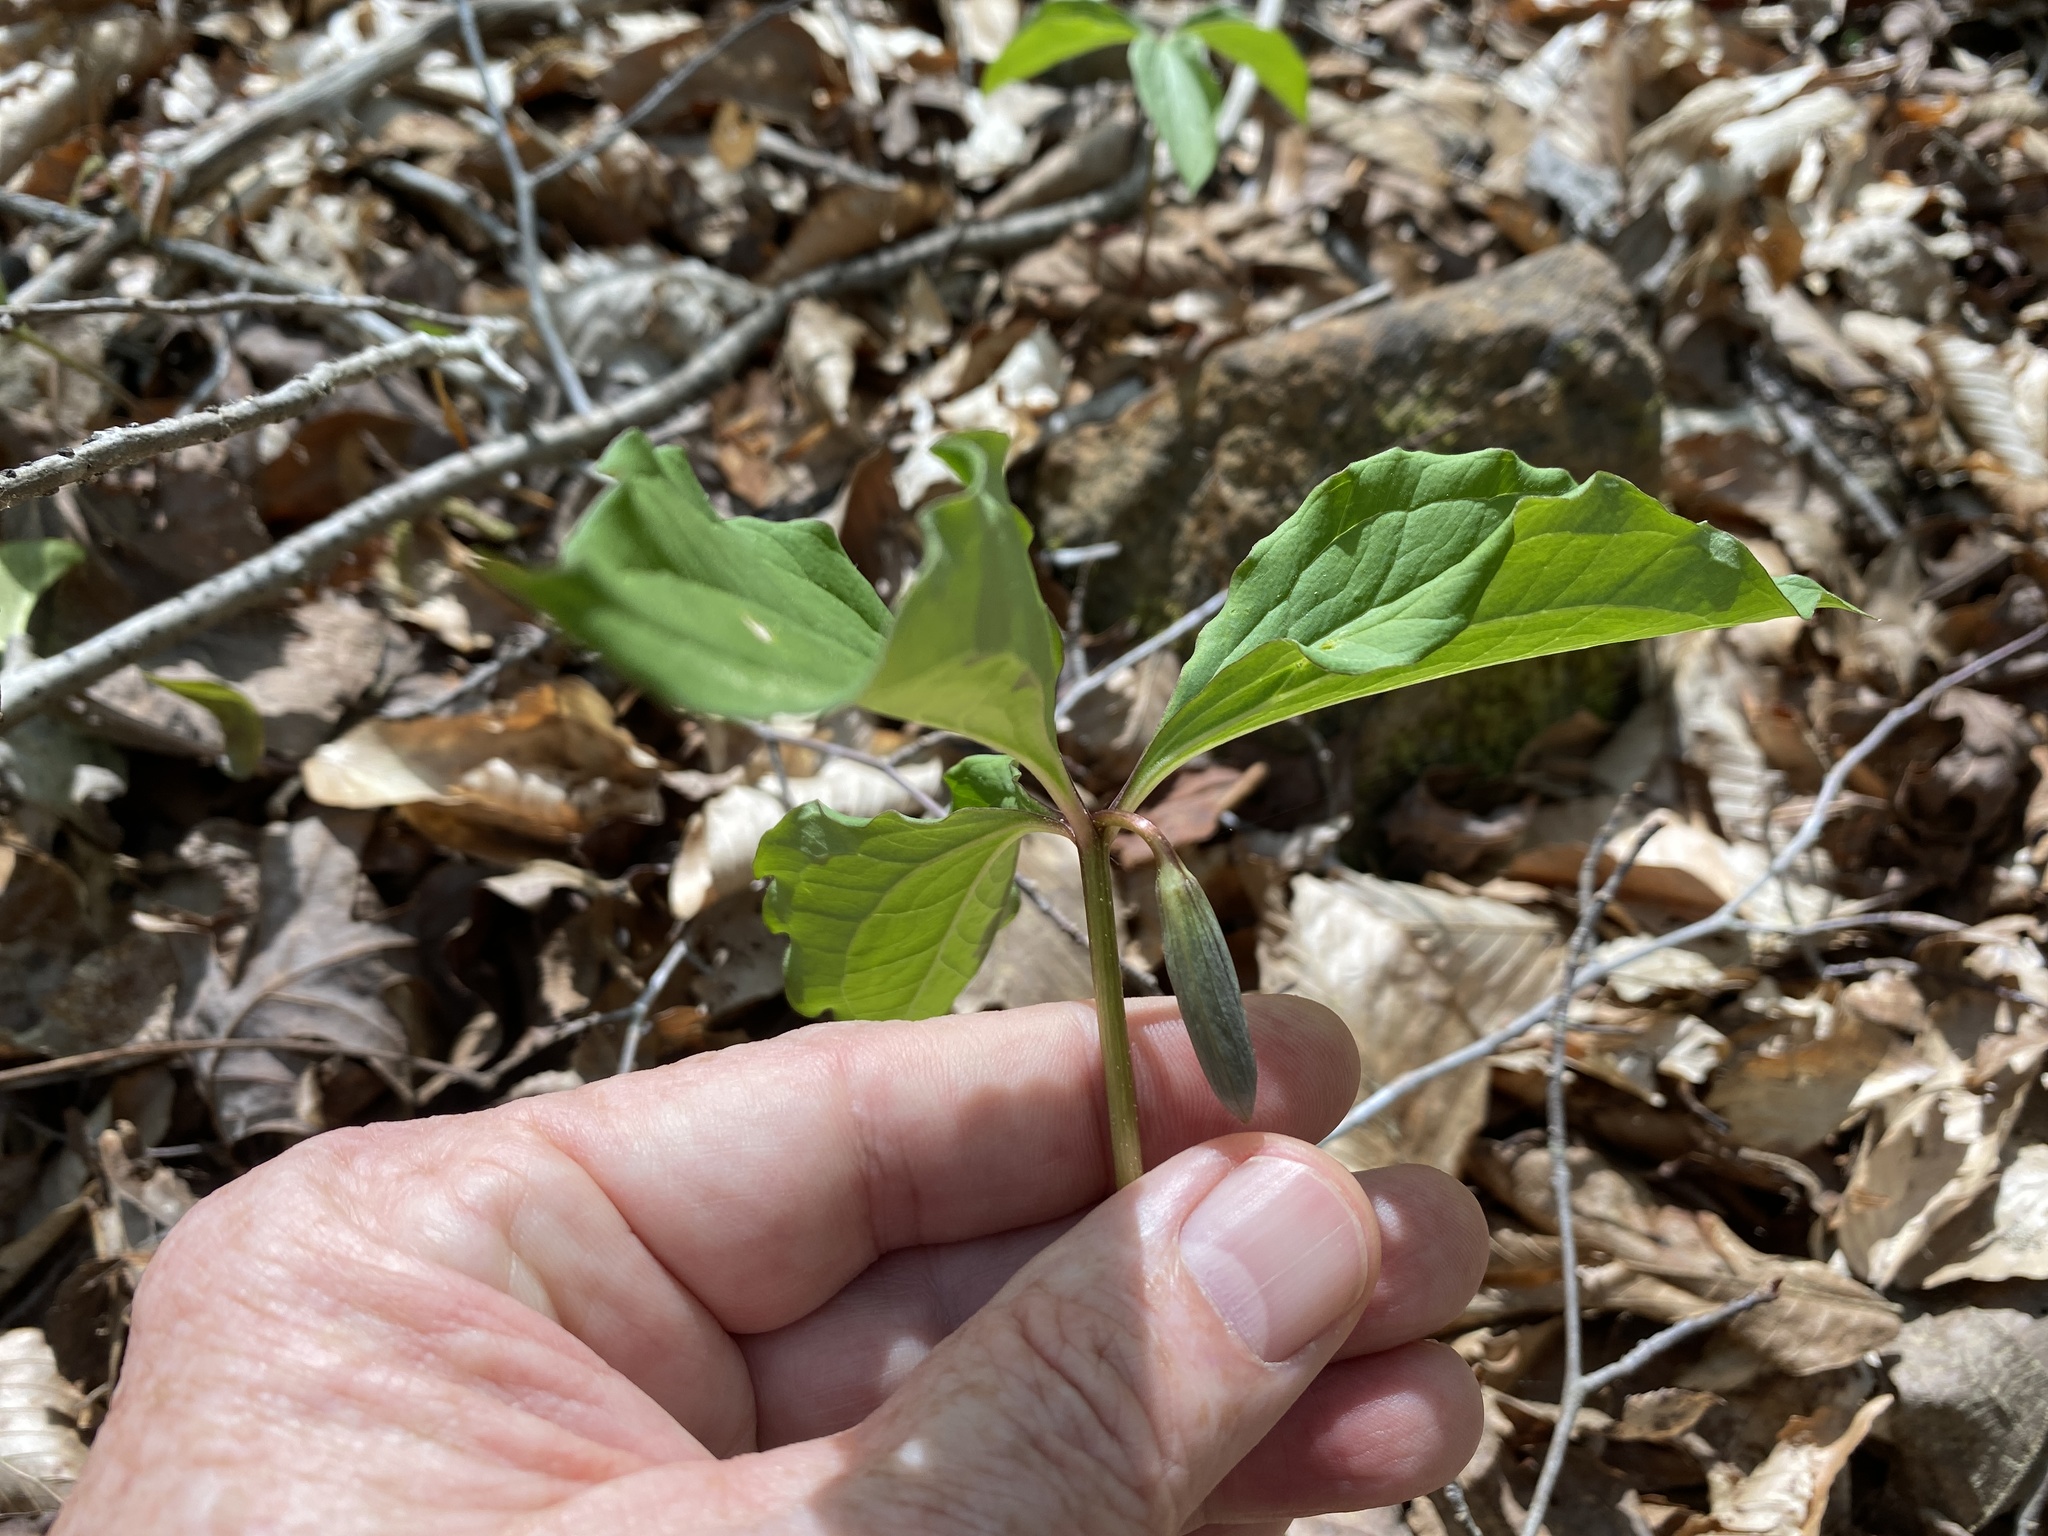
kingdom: Plantae
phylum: Tracheophyta
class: Liliopsida
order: Liliales
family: Melanthiaceae
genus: Trillium
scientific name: Trillium catesbaei
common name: Bashful trillium
